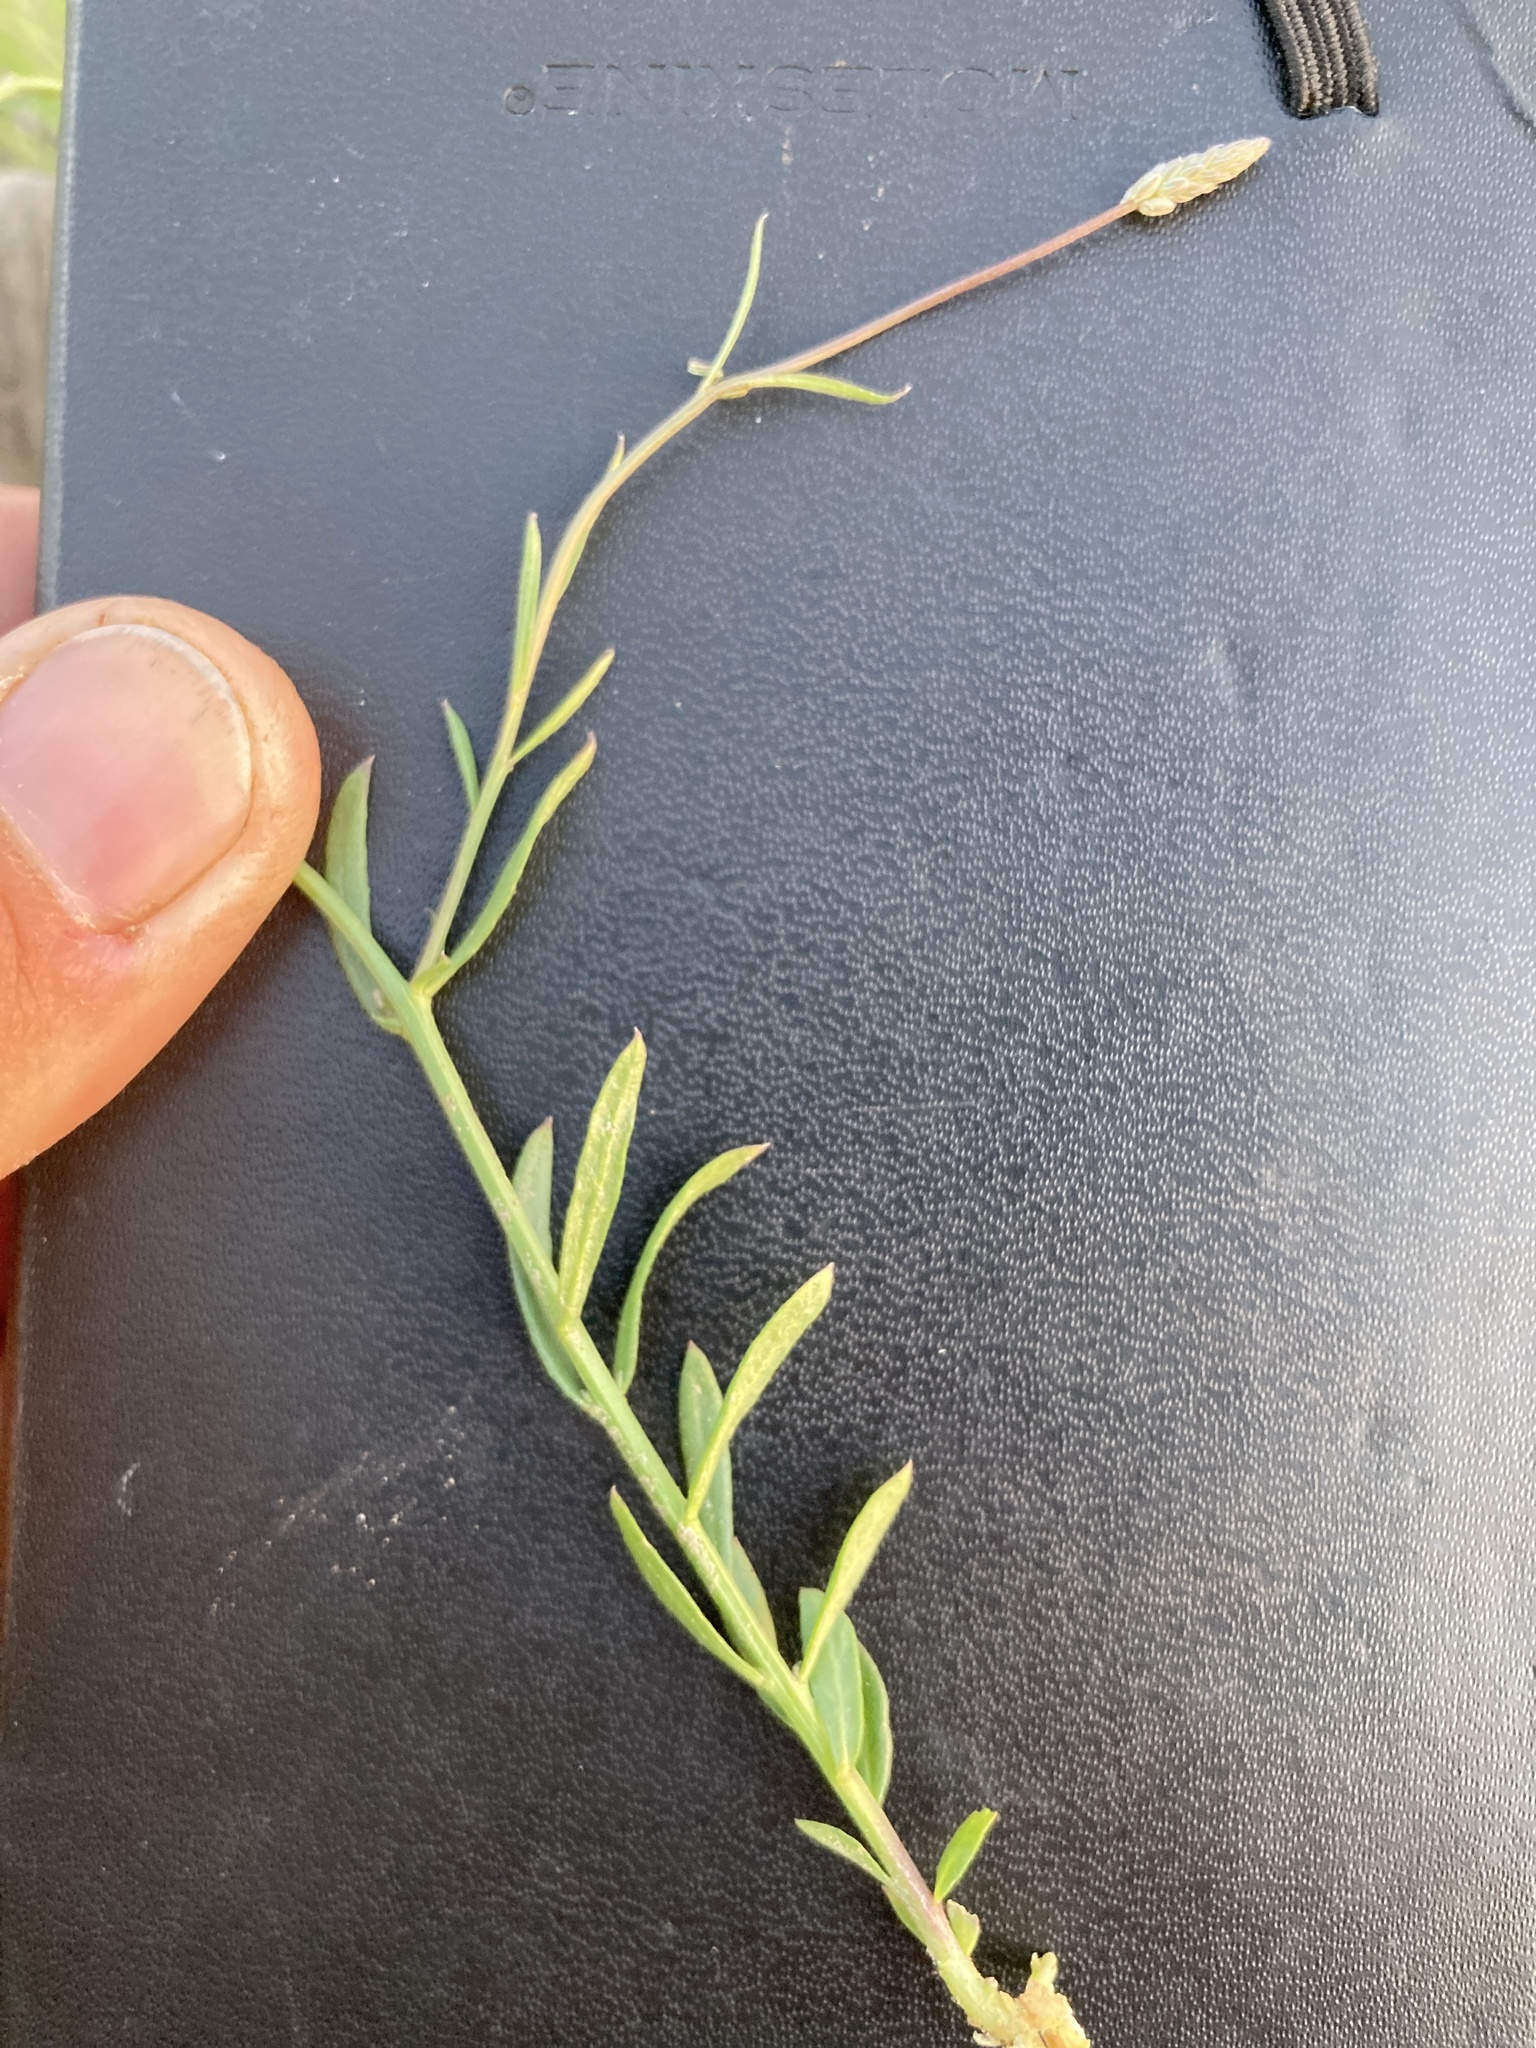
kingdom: Plantae
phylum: Tracheophyta
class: Magnoliopsida
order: Fabales
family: Polygalaceae
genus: Polygala
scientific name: Polygala alba
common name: White milkwort
